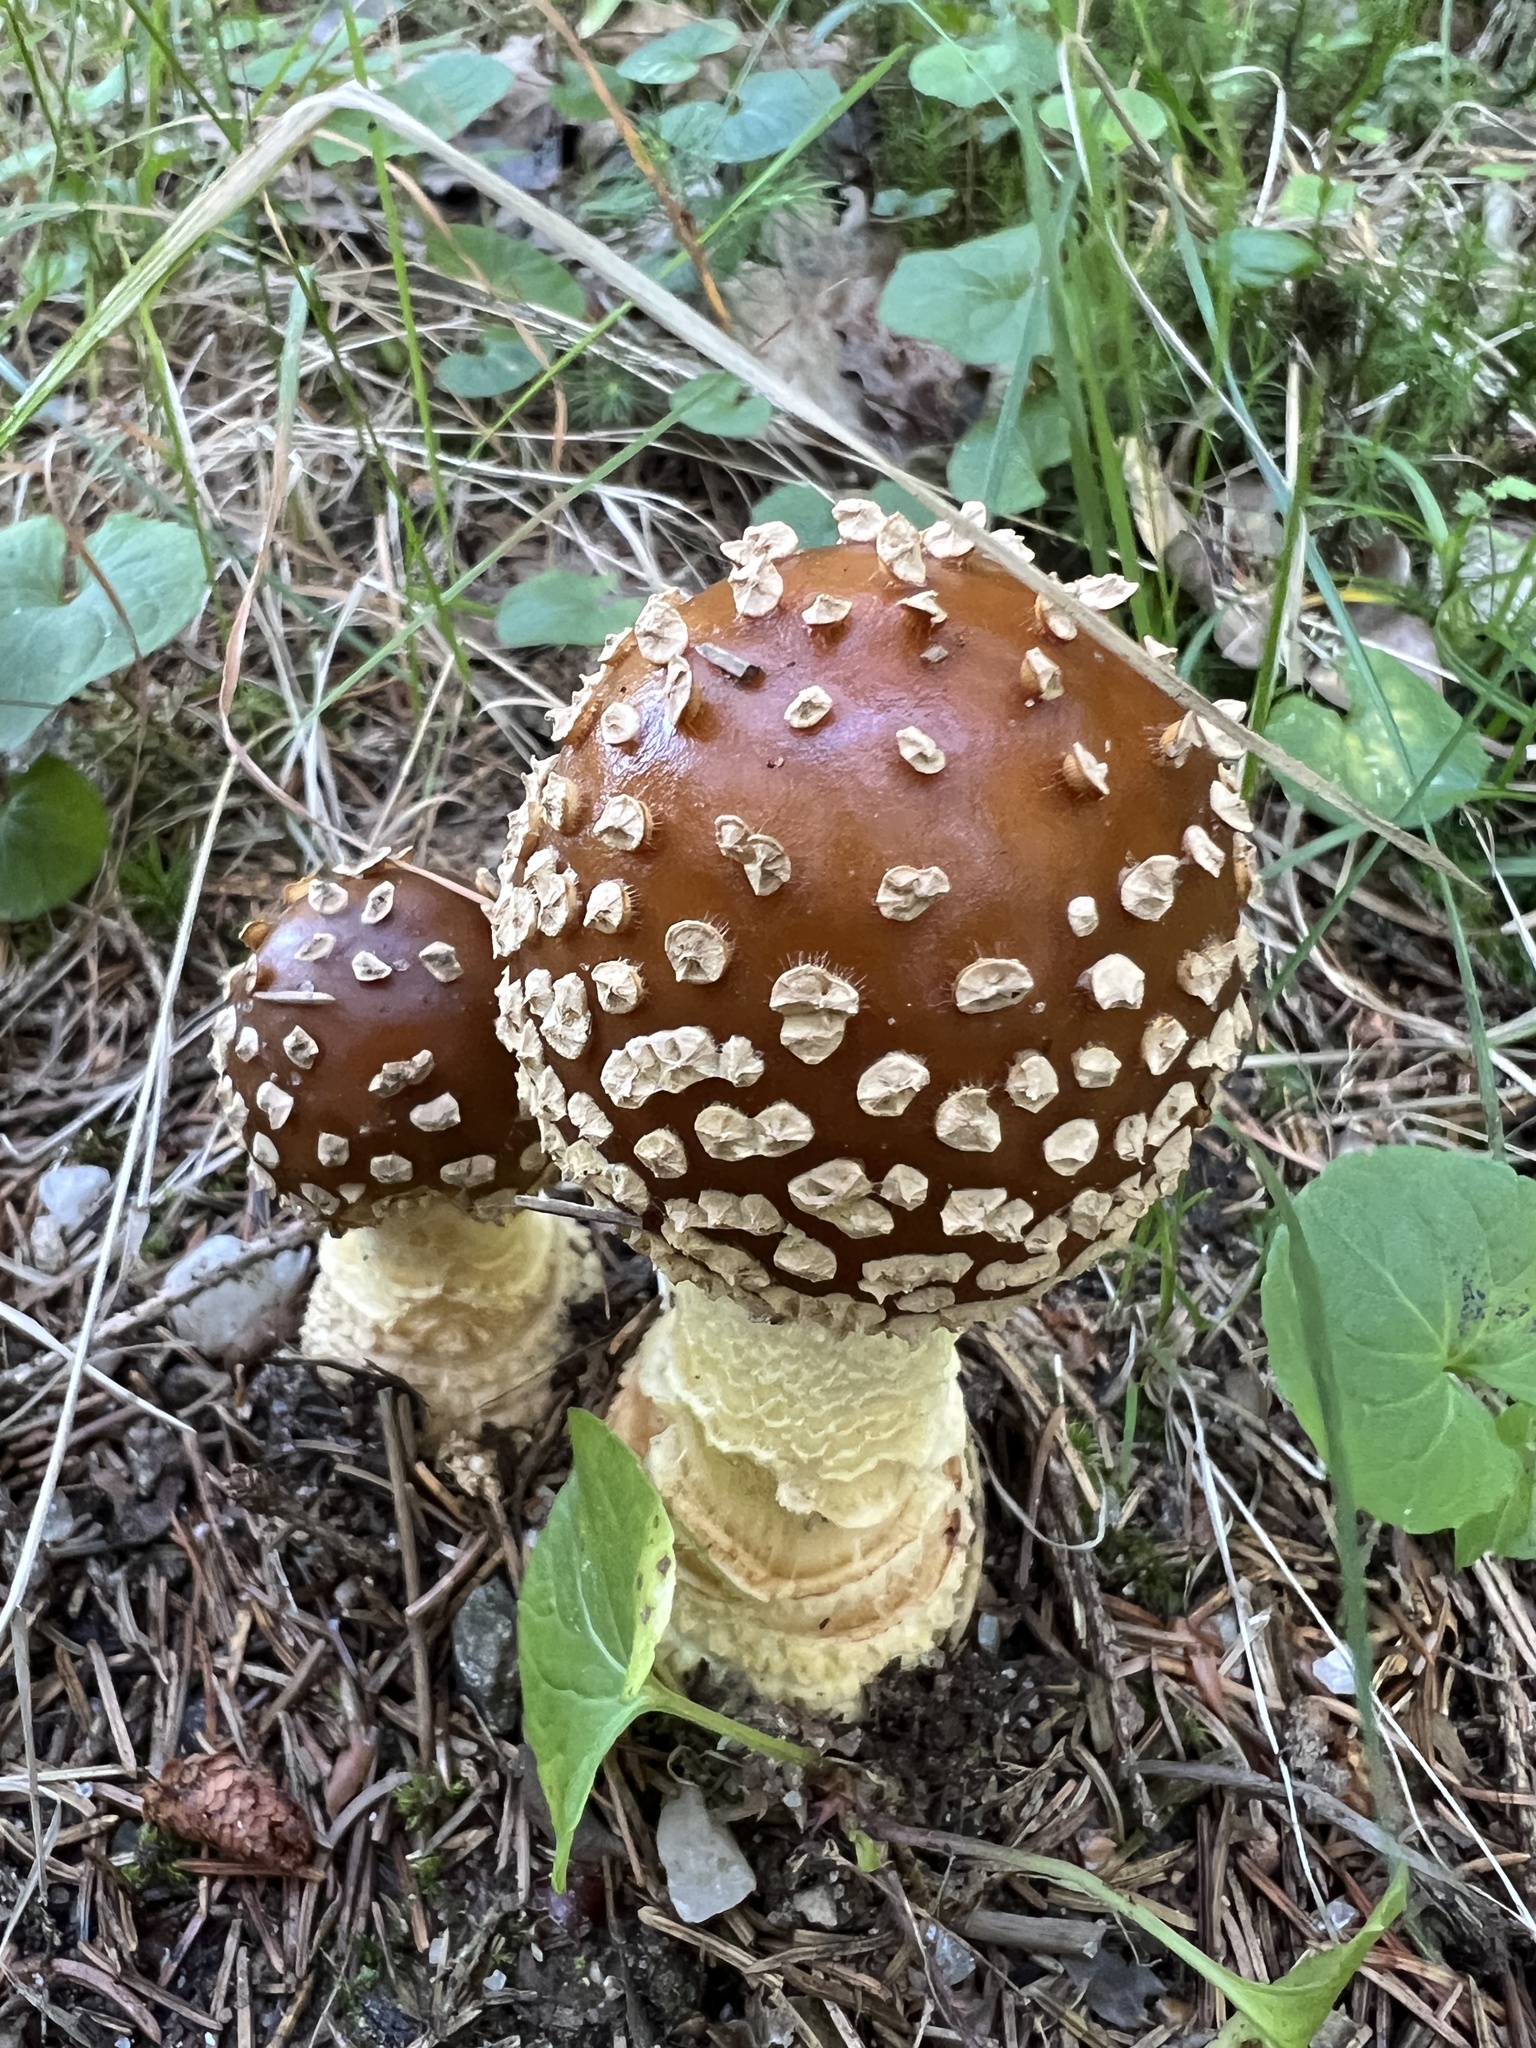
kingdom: Fungi
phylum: Basidiomycota
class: Agaricomycetes
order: Agaricales
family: Amanitaceae
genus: Amanita
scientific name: Amanita regalis
